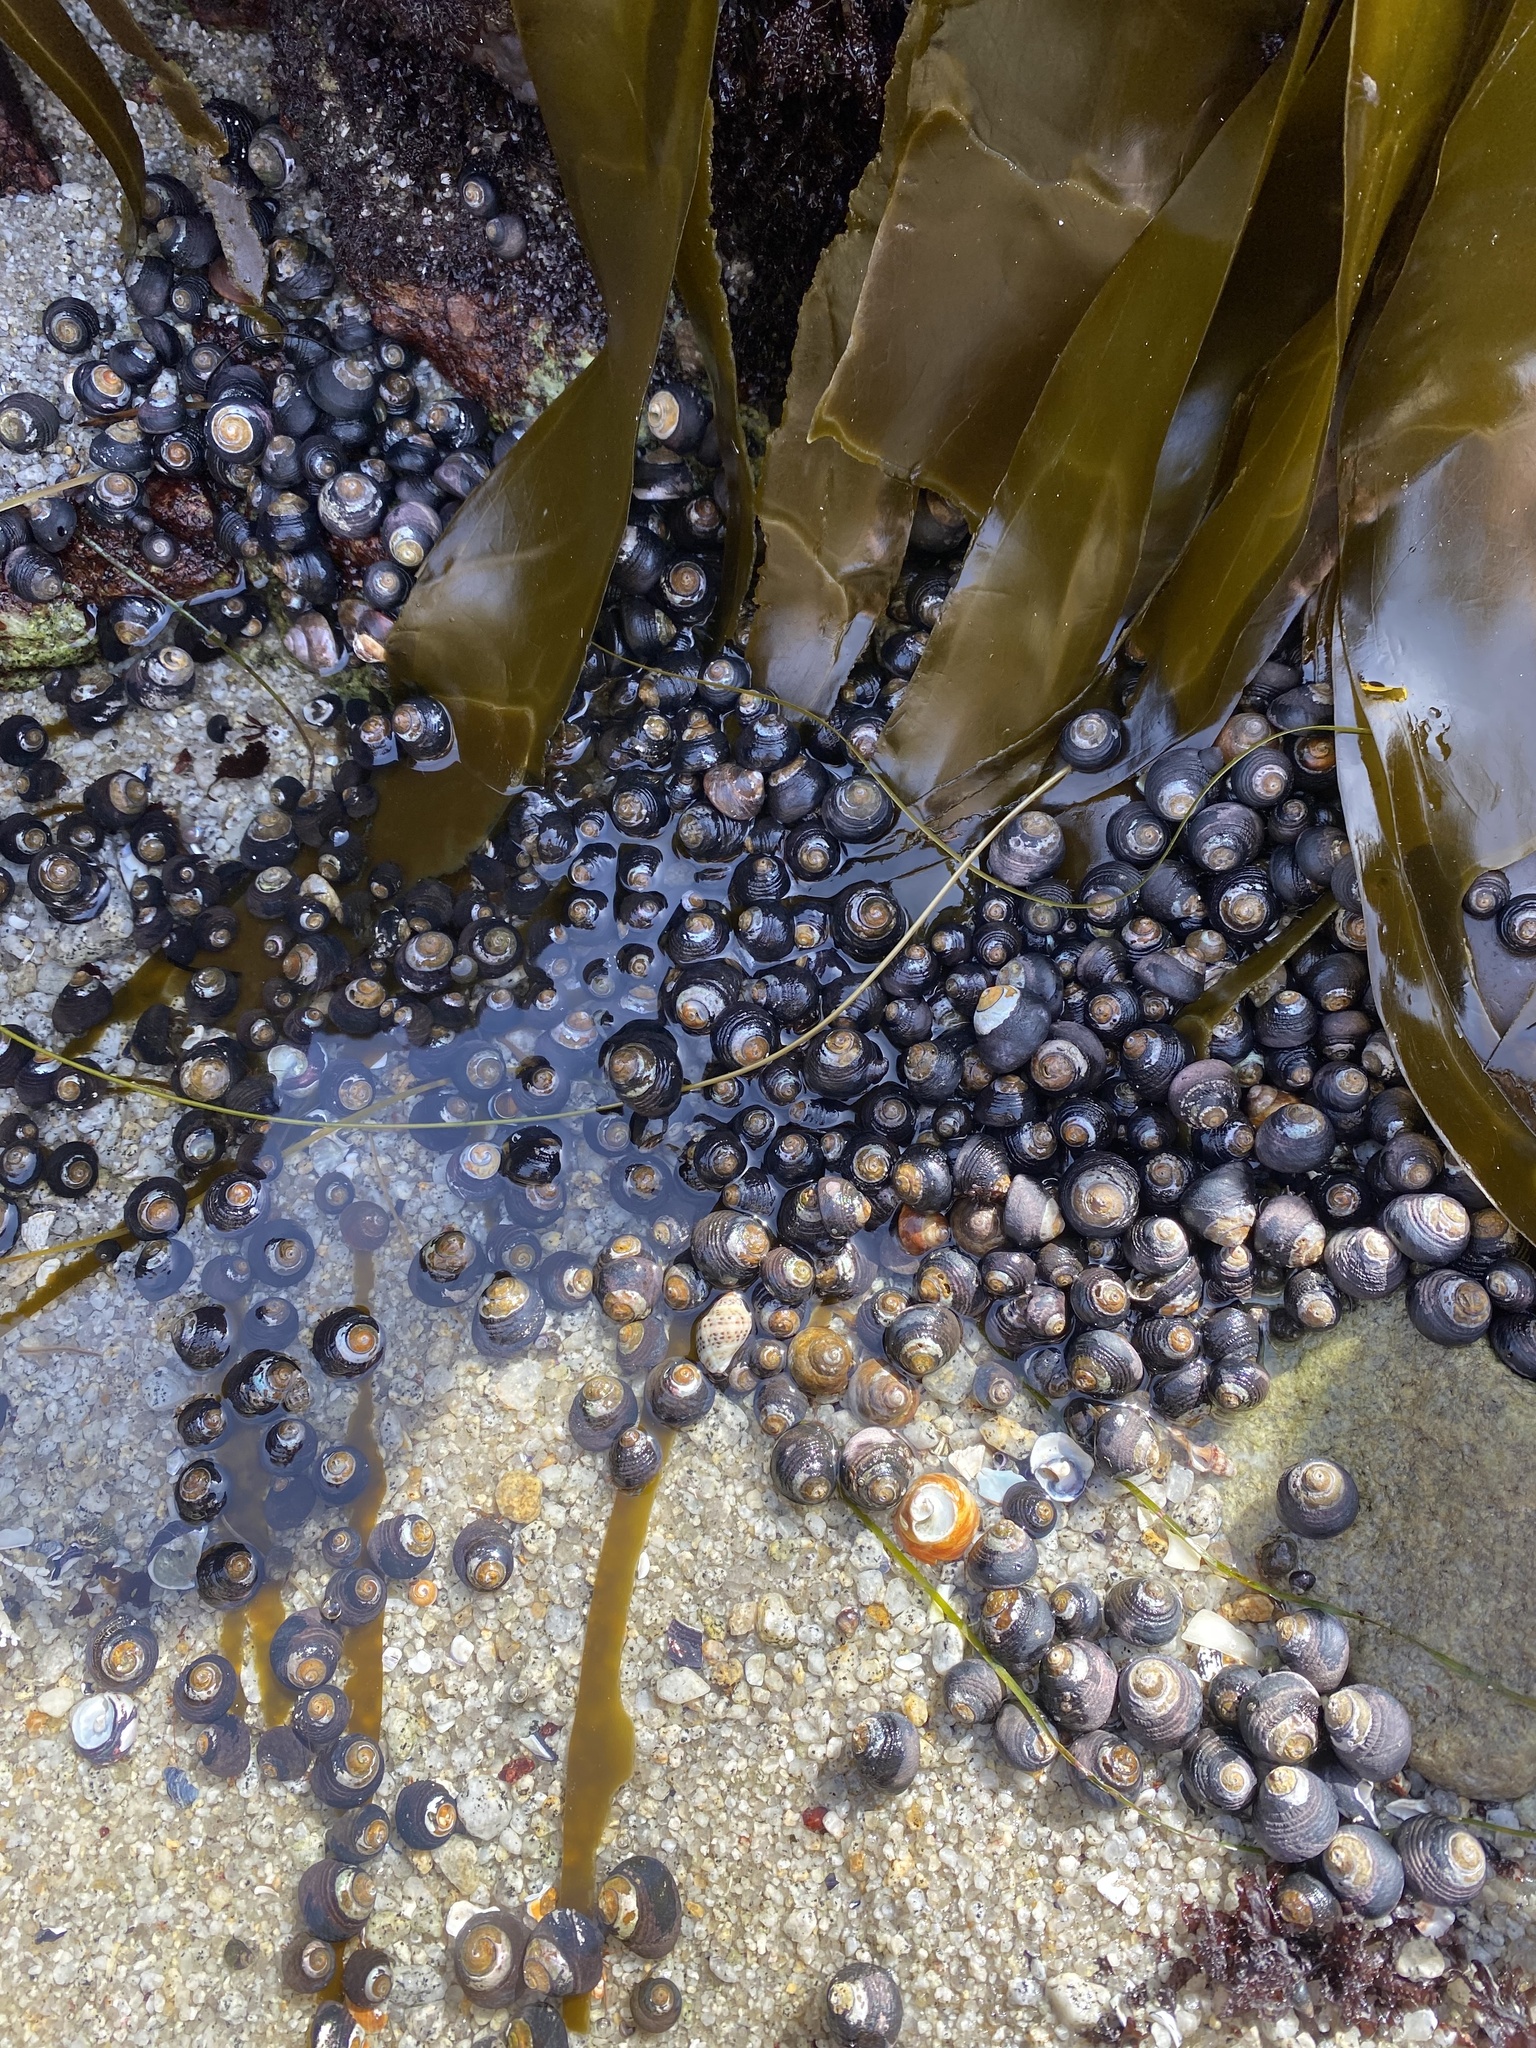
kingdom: Animalia
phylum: Mollusca
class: Gastropoda
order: Trochida
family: Tegulidae
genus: Tegula
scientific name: Tegula funebralis
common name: Black tegula
